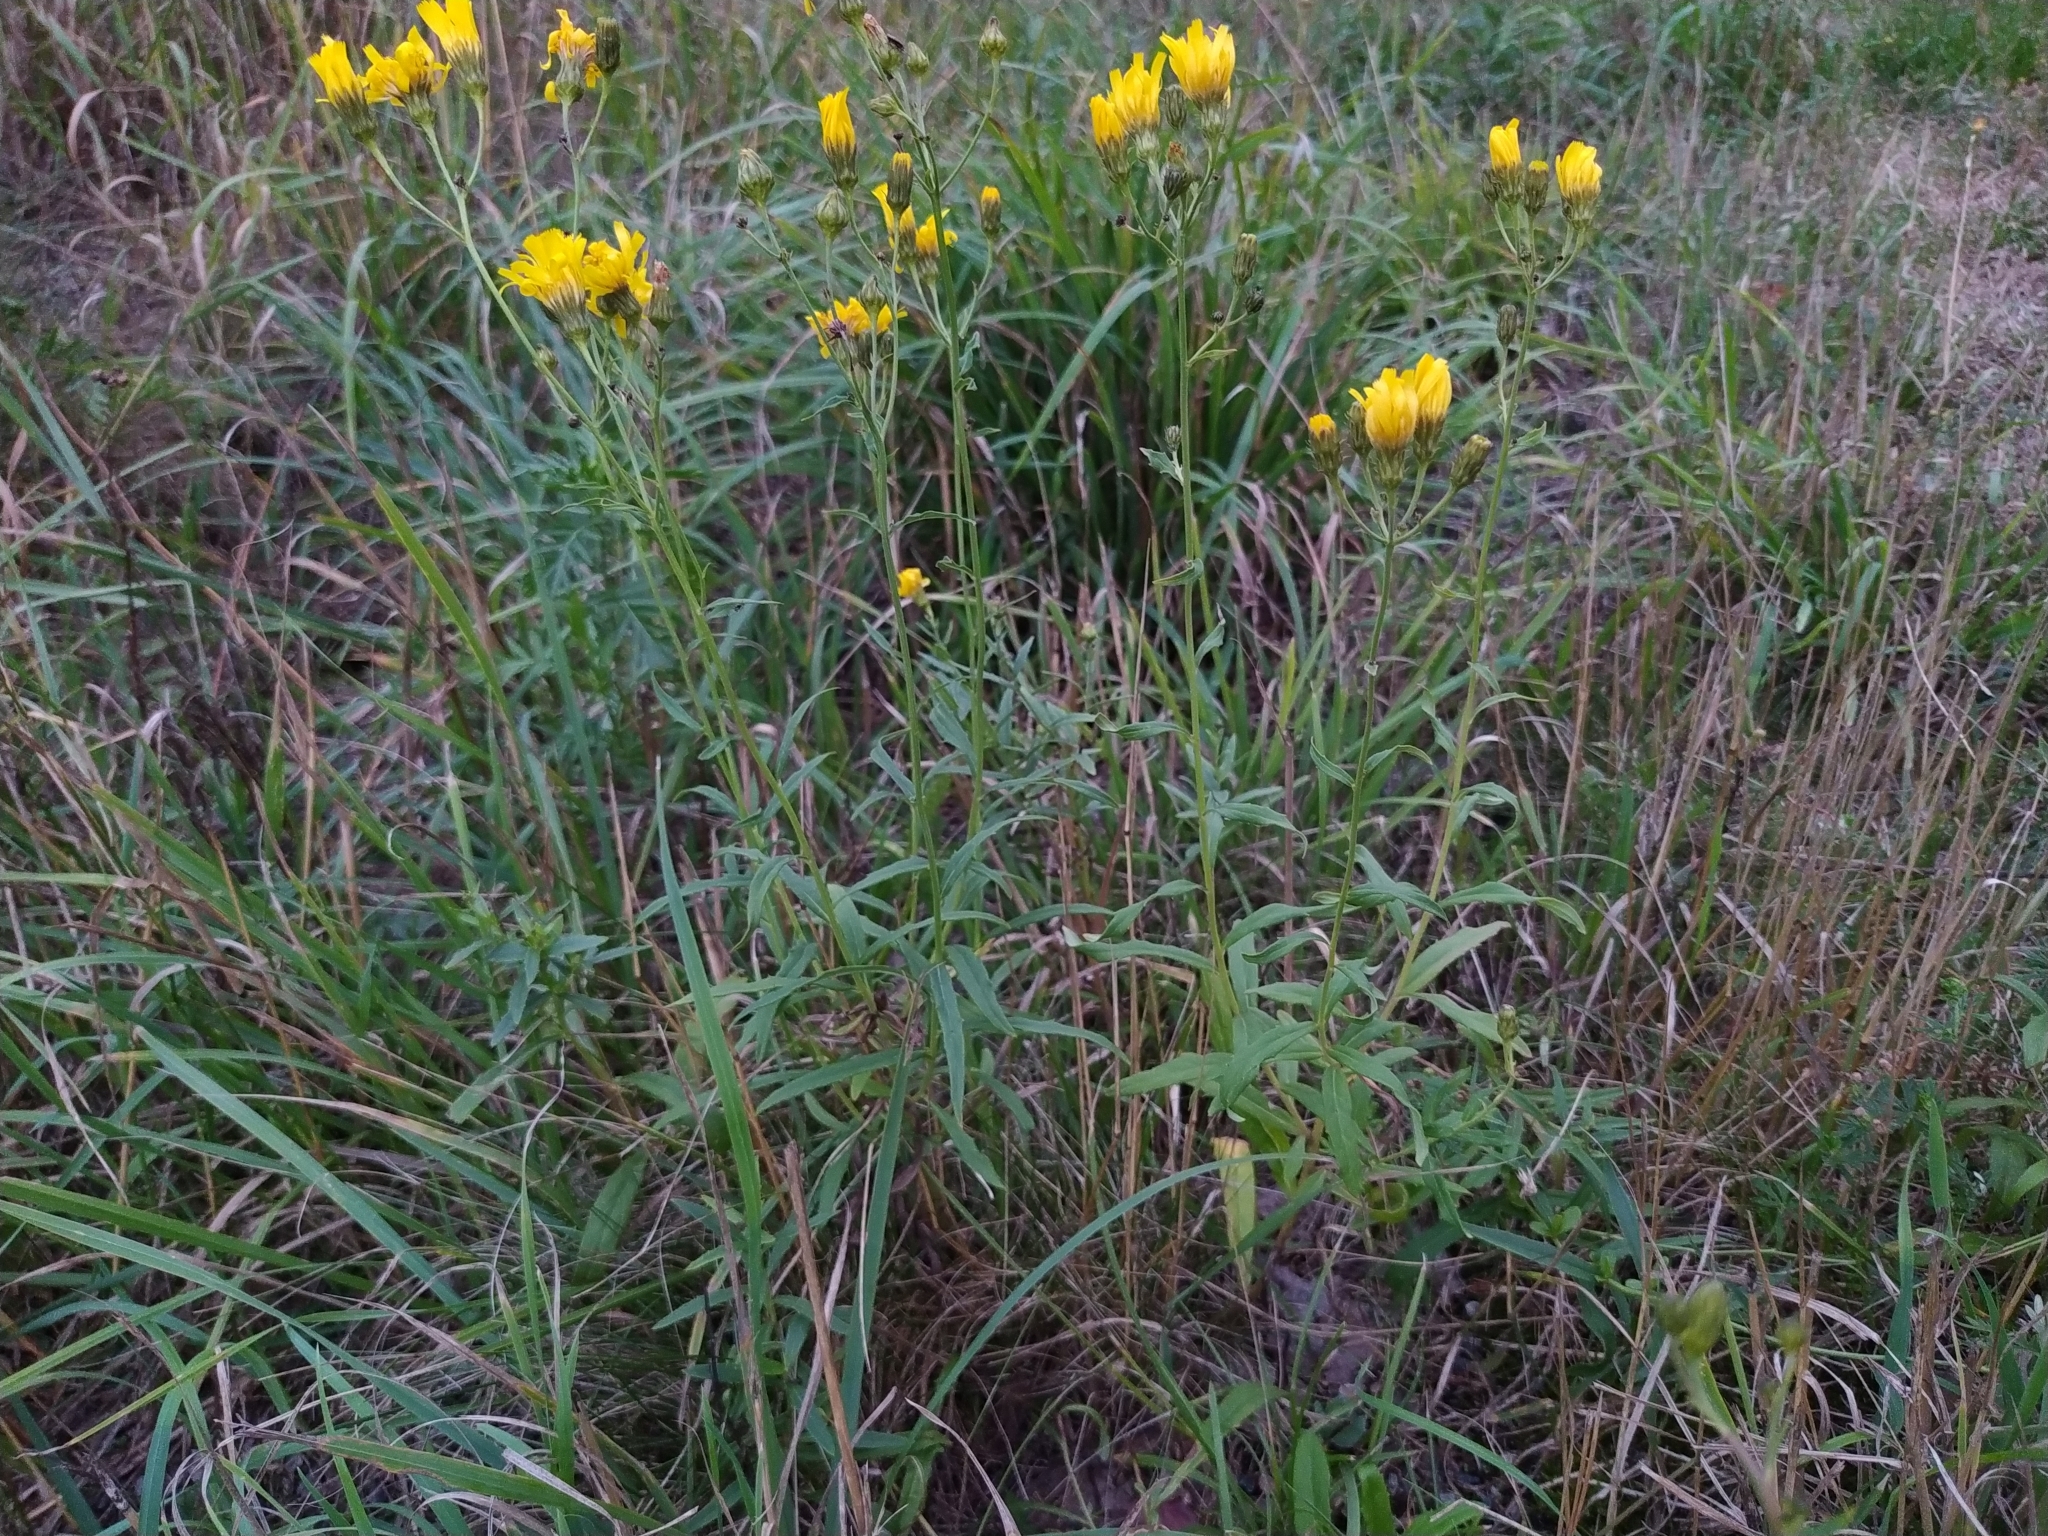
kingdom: Plantae
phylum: Tracheophyta
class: Magnoliopsida
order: Asterales
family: Asteraceae
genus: Hieracium
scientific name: Hieracium umbellatum
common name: Northern hawkweed
